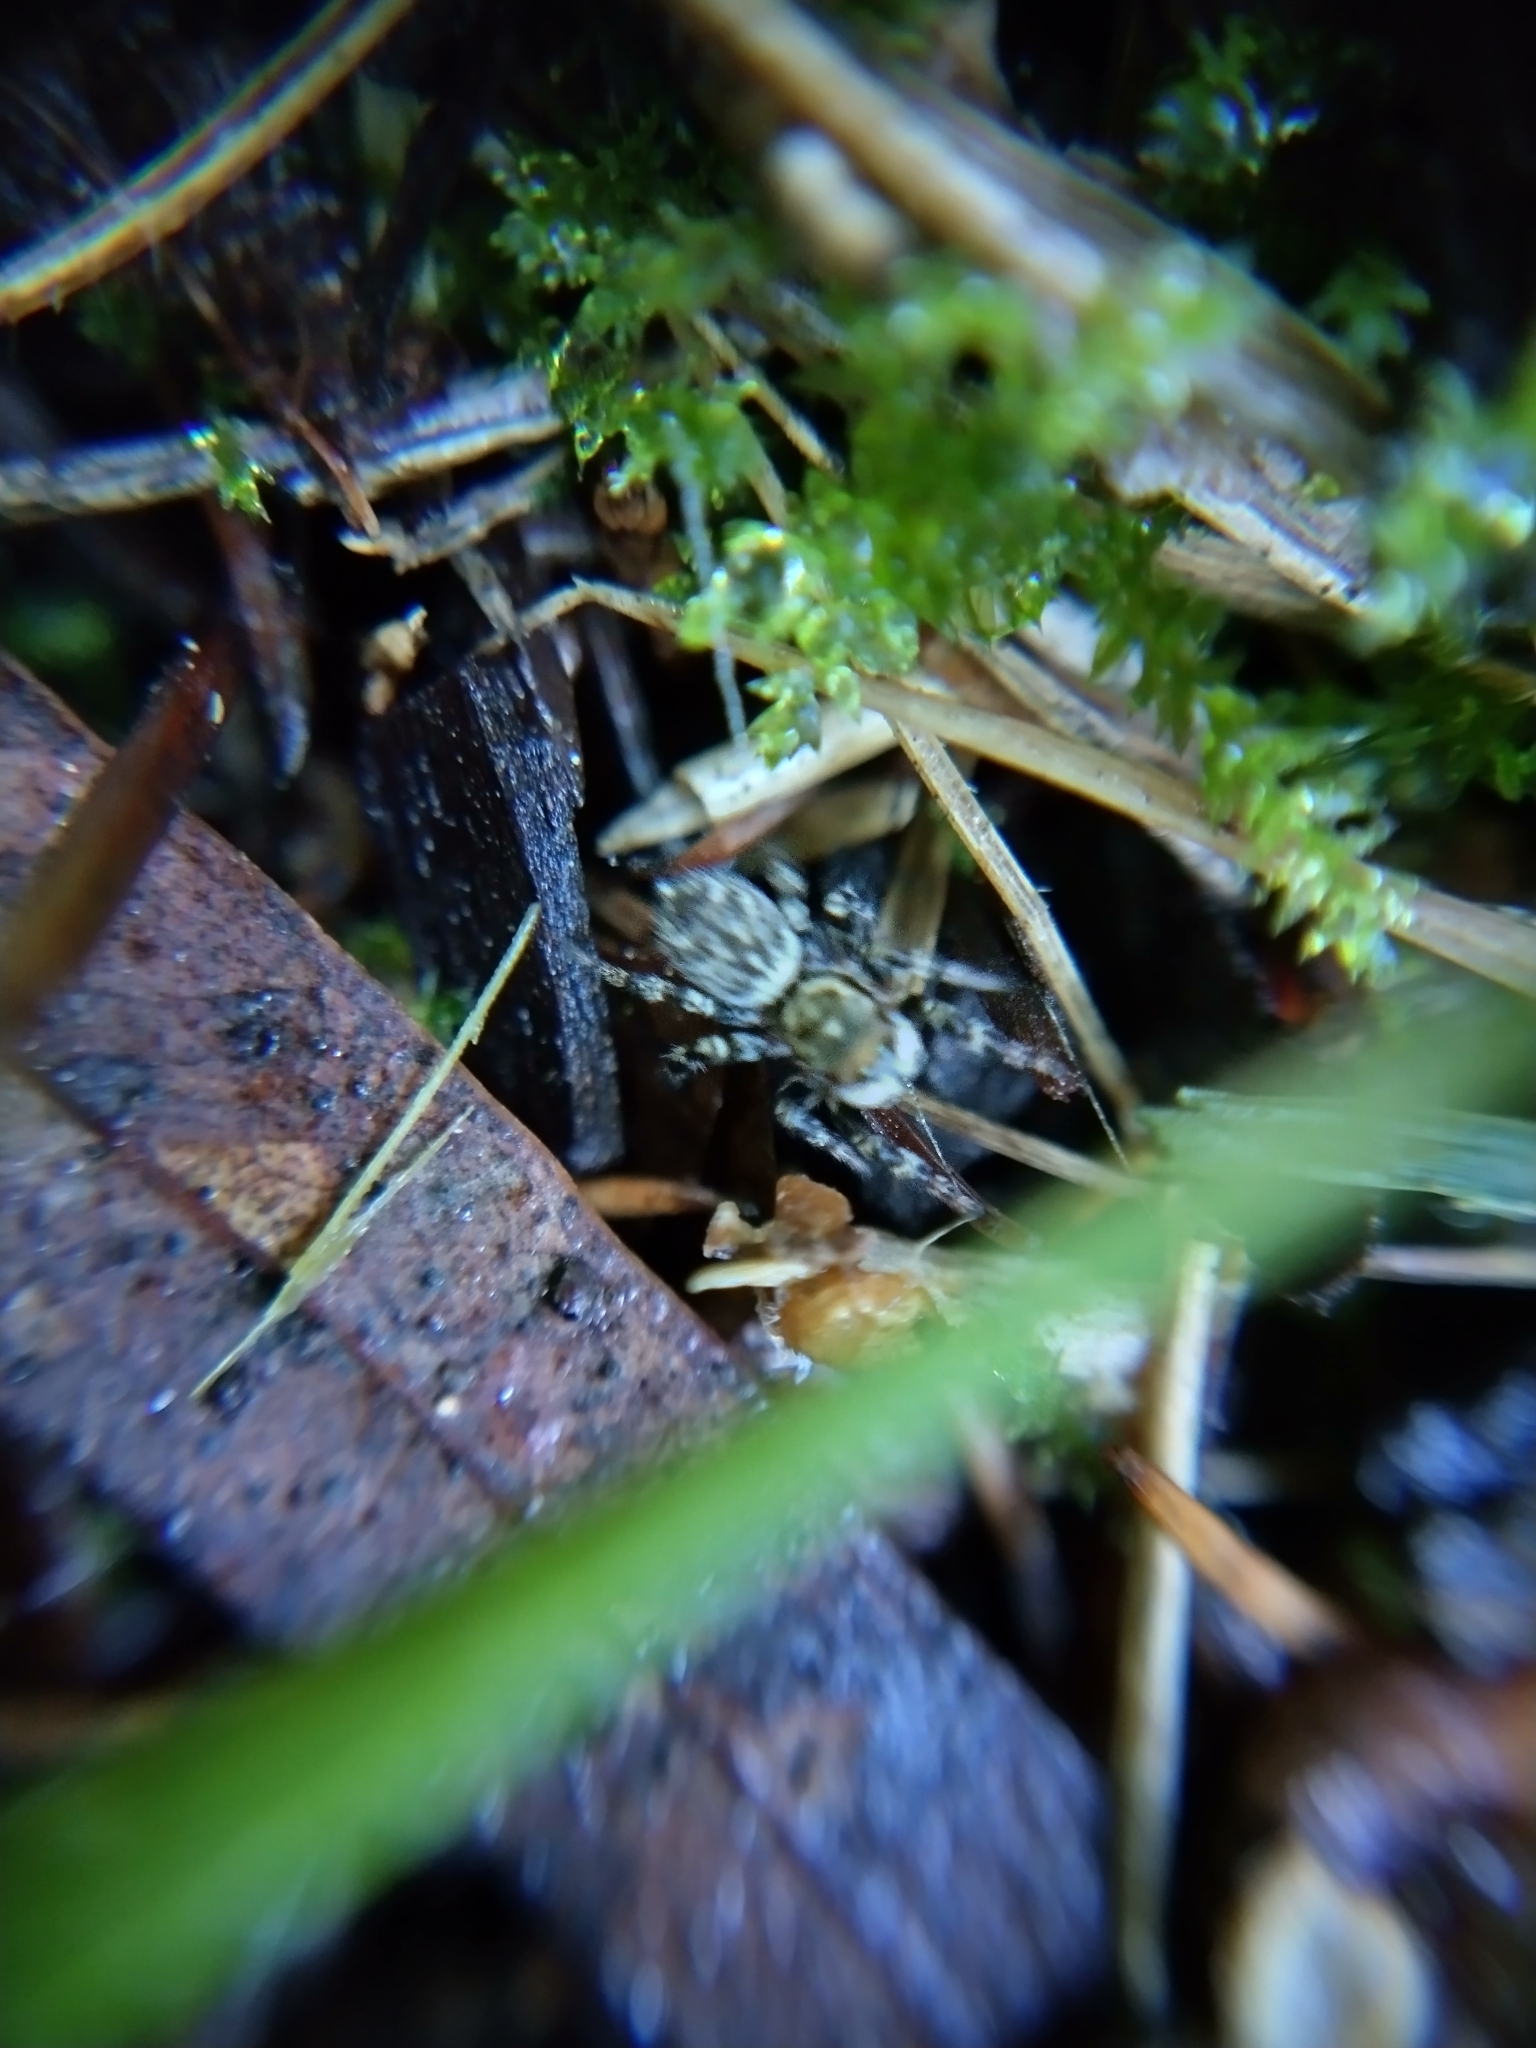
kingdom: Animalia
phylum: Arthropoda
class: Arachnida
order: Araneae
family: Salticidae
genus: Maratus
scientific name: Maratus griseus
